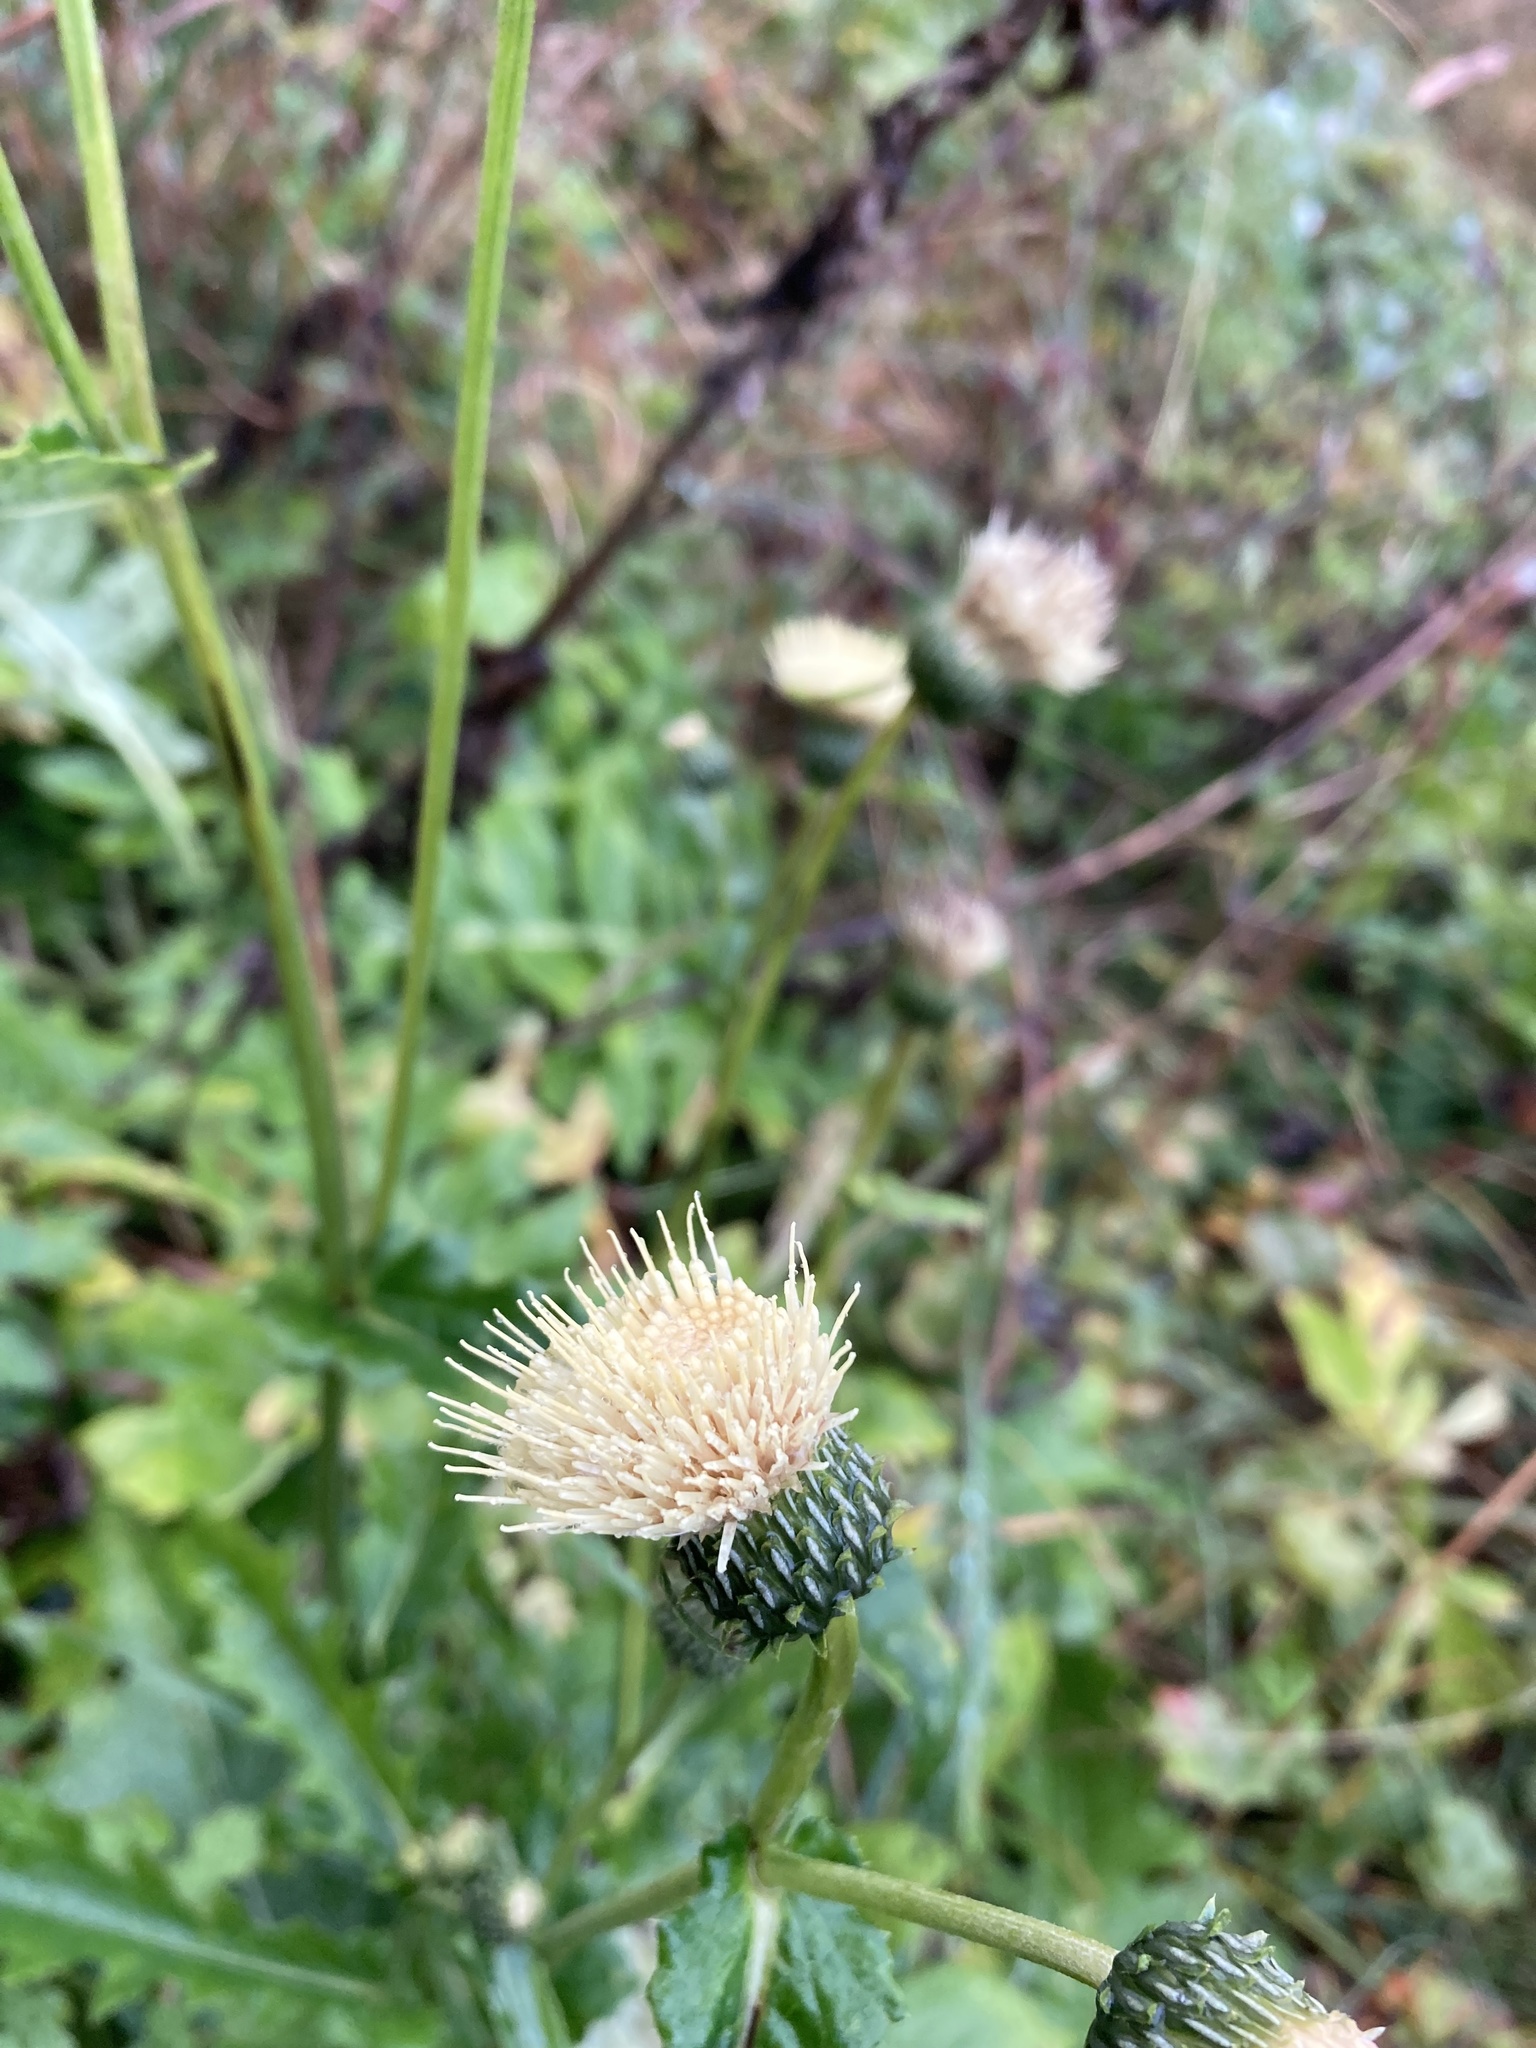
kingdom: Plantae
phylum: Tracheophyta
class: Magnoliopsida
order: Asterales
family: Asteraceae
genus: Cirsium
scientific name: Cirsium erisithales
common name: Yellow thistle
